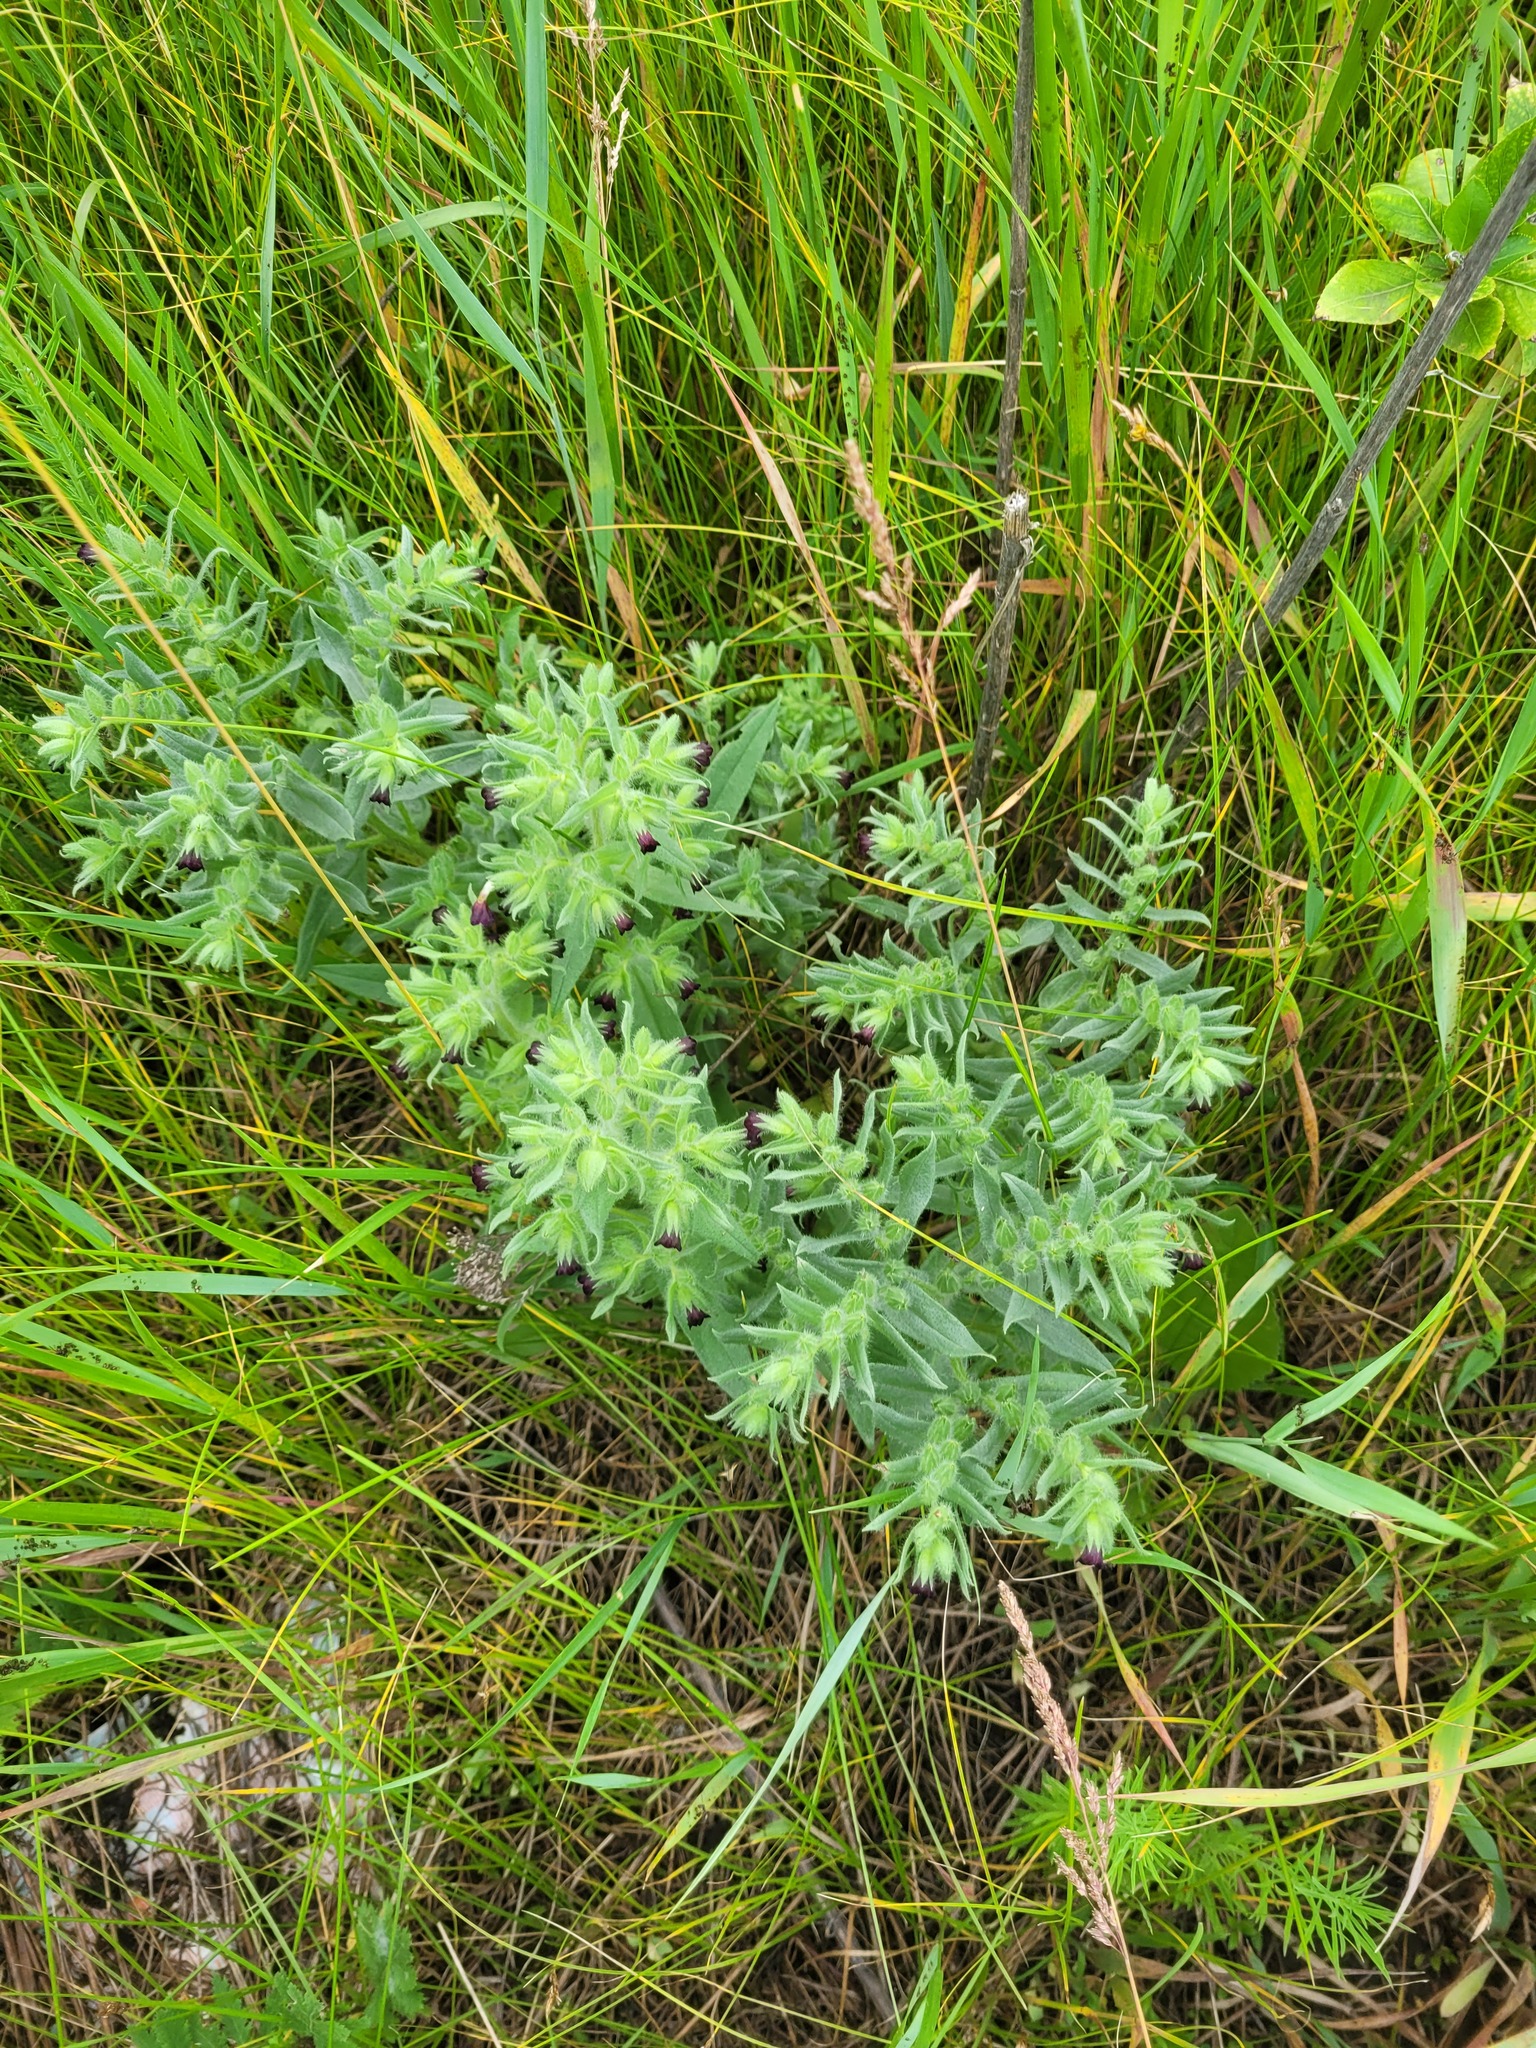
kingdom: Plantae
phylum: Tracheophyta
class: Magnoliopsida
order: Boraginales
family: Boraginaceae
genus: Nonea
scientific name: Nonea pulla
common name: Brown nonea
